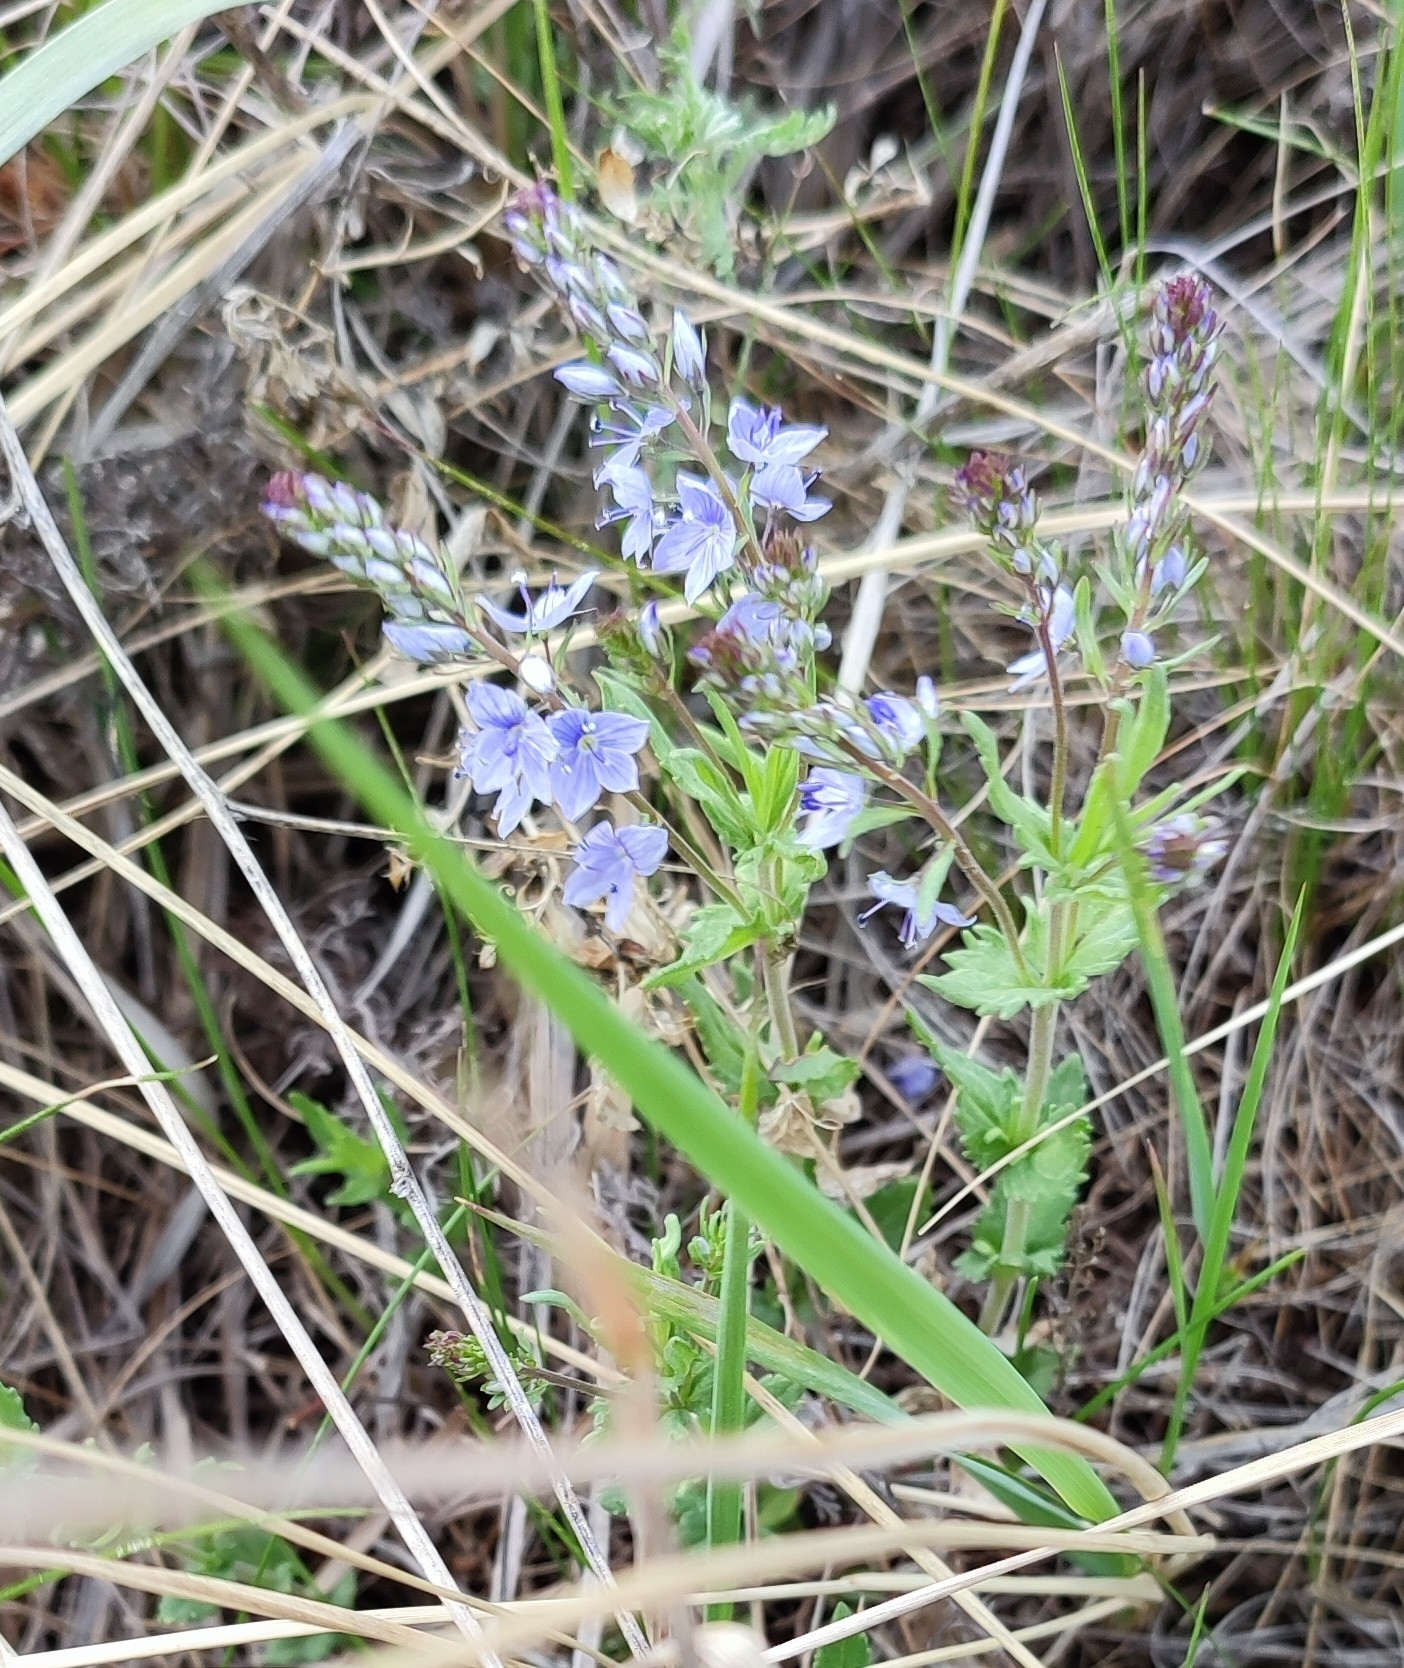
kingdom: Plantae
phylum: Tracheophyta
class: Magnoliopsida
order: Lamiales
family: Plantaginaceae
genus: Veronica
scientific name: Veronica prostrata
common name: Prostrate speedwell
